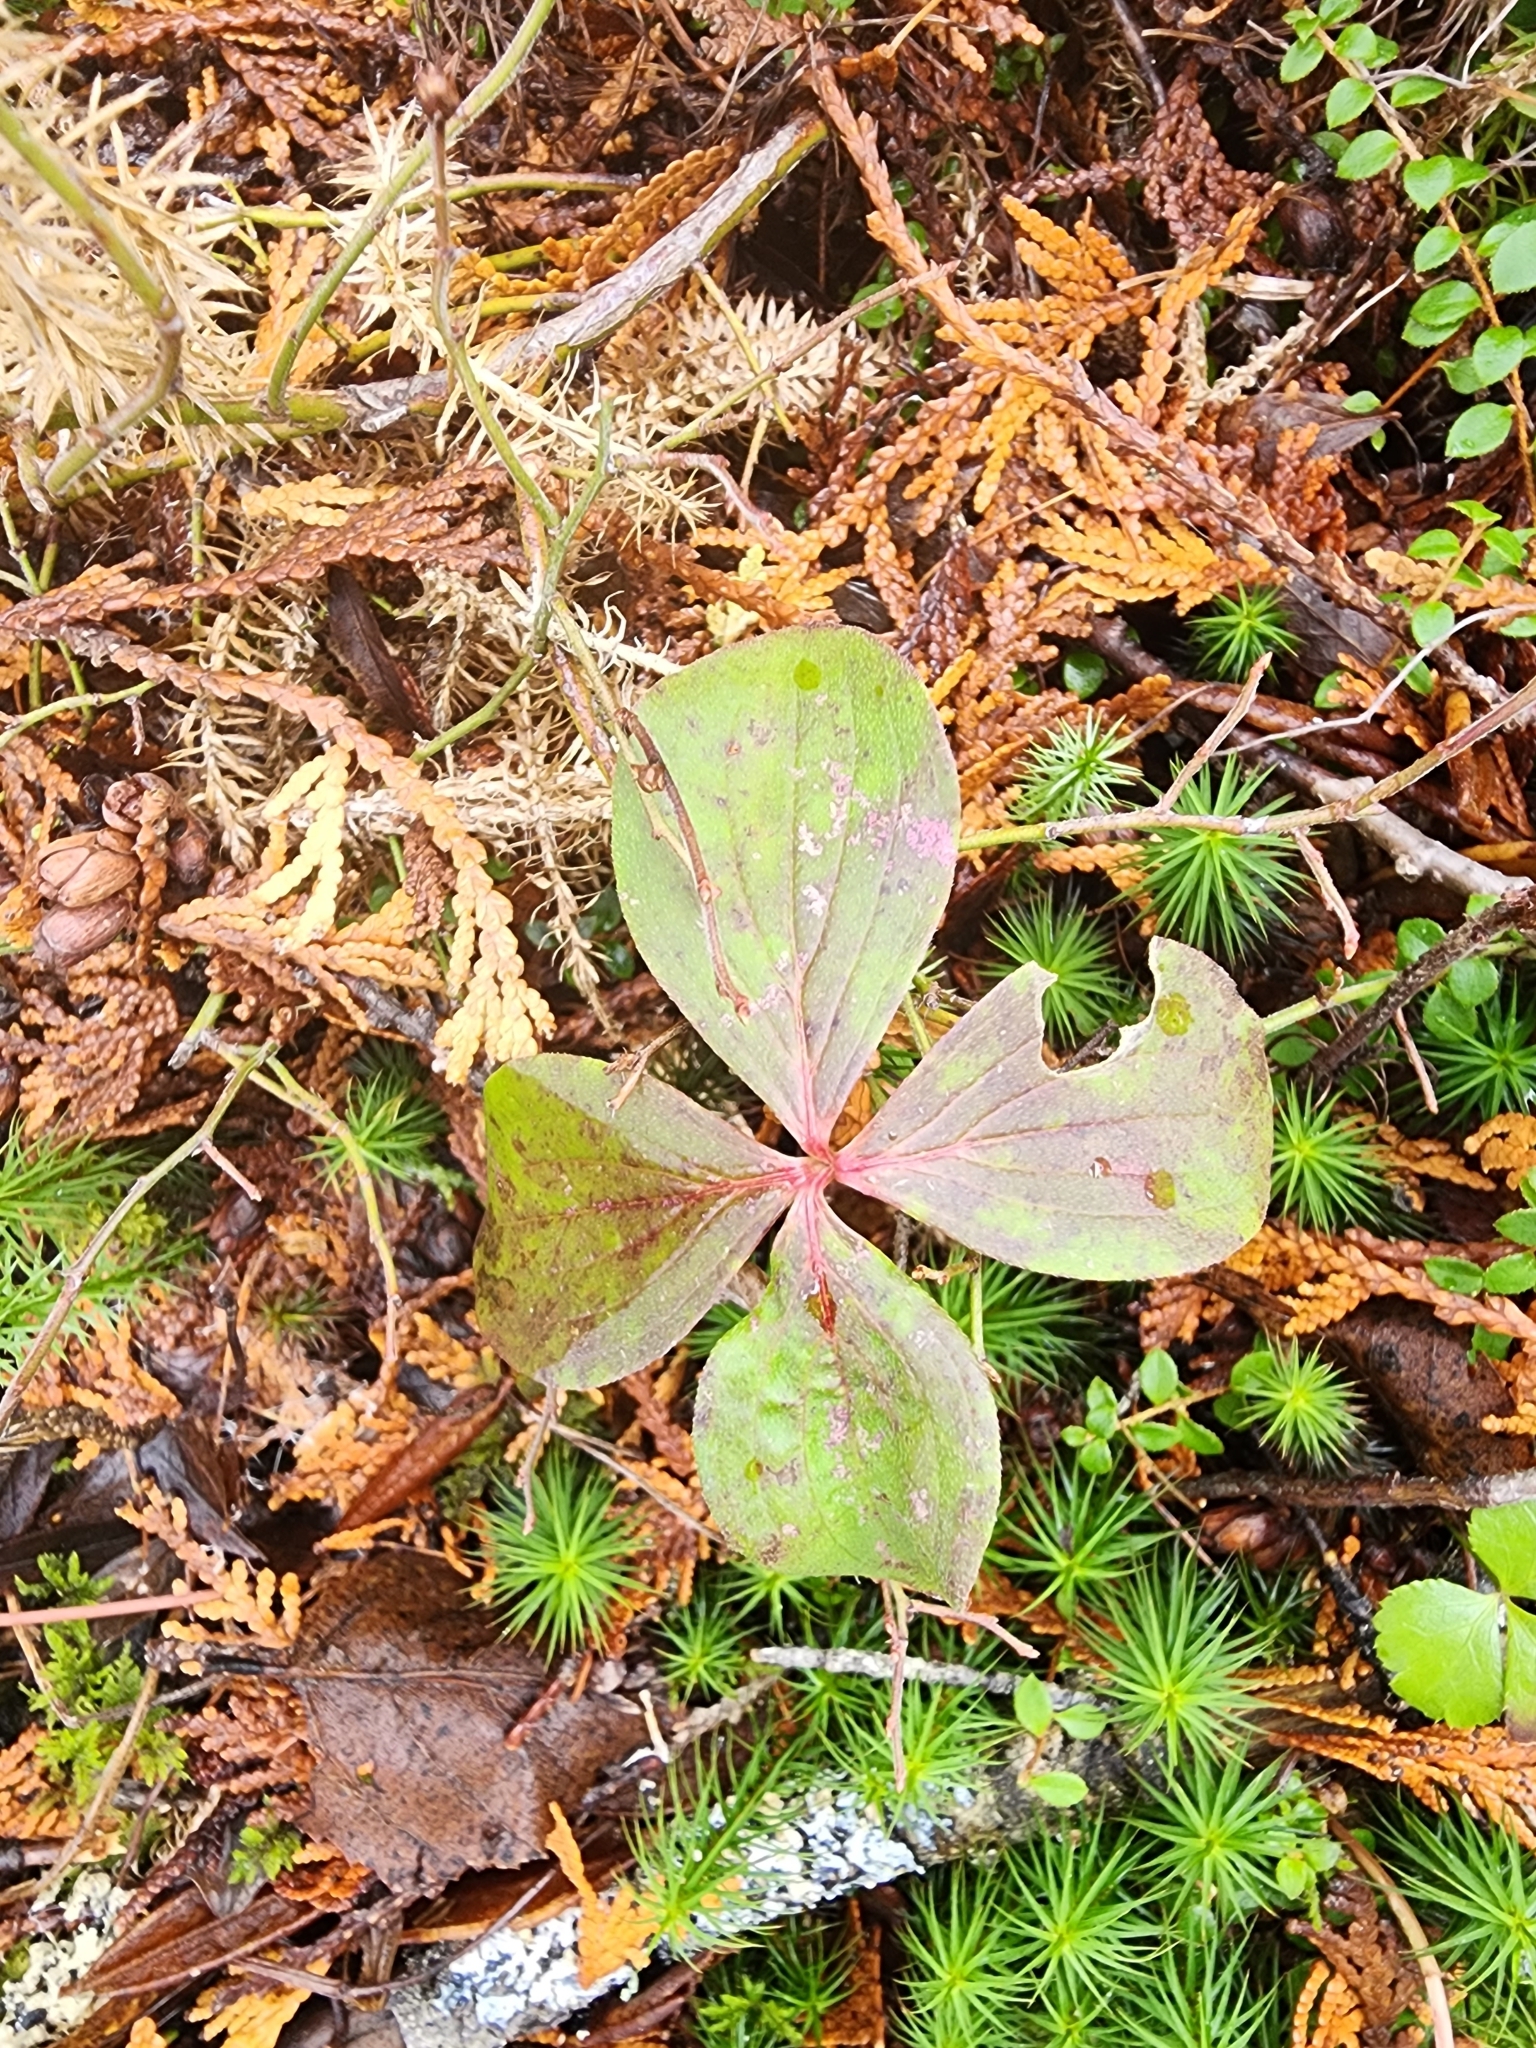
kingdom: Plantae
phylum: Tracheophyta
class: Magnoliopsida
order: Cornales
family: Cornaceae
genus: Cornus
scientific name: Cornus canadensis
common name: Creeping dogwood
